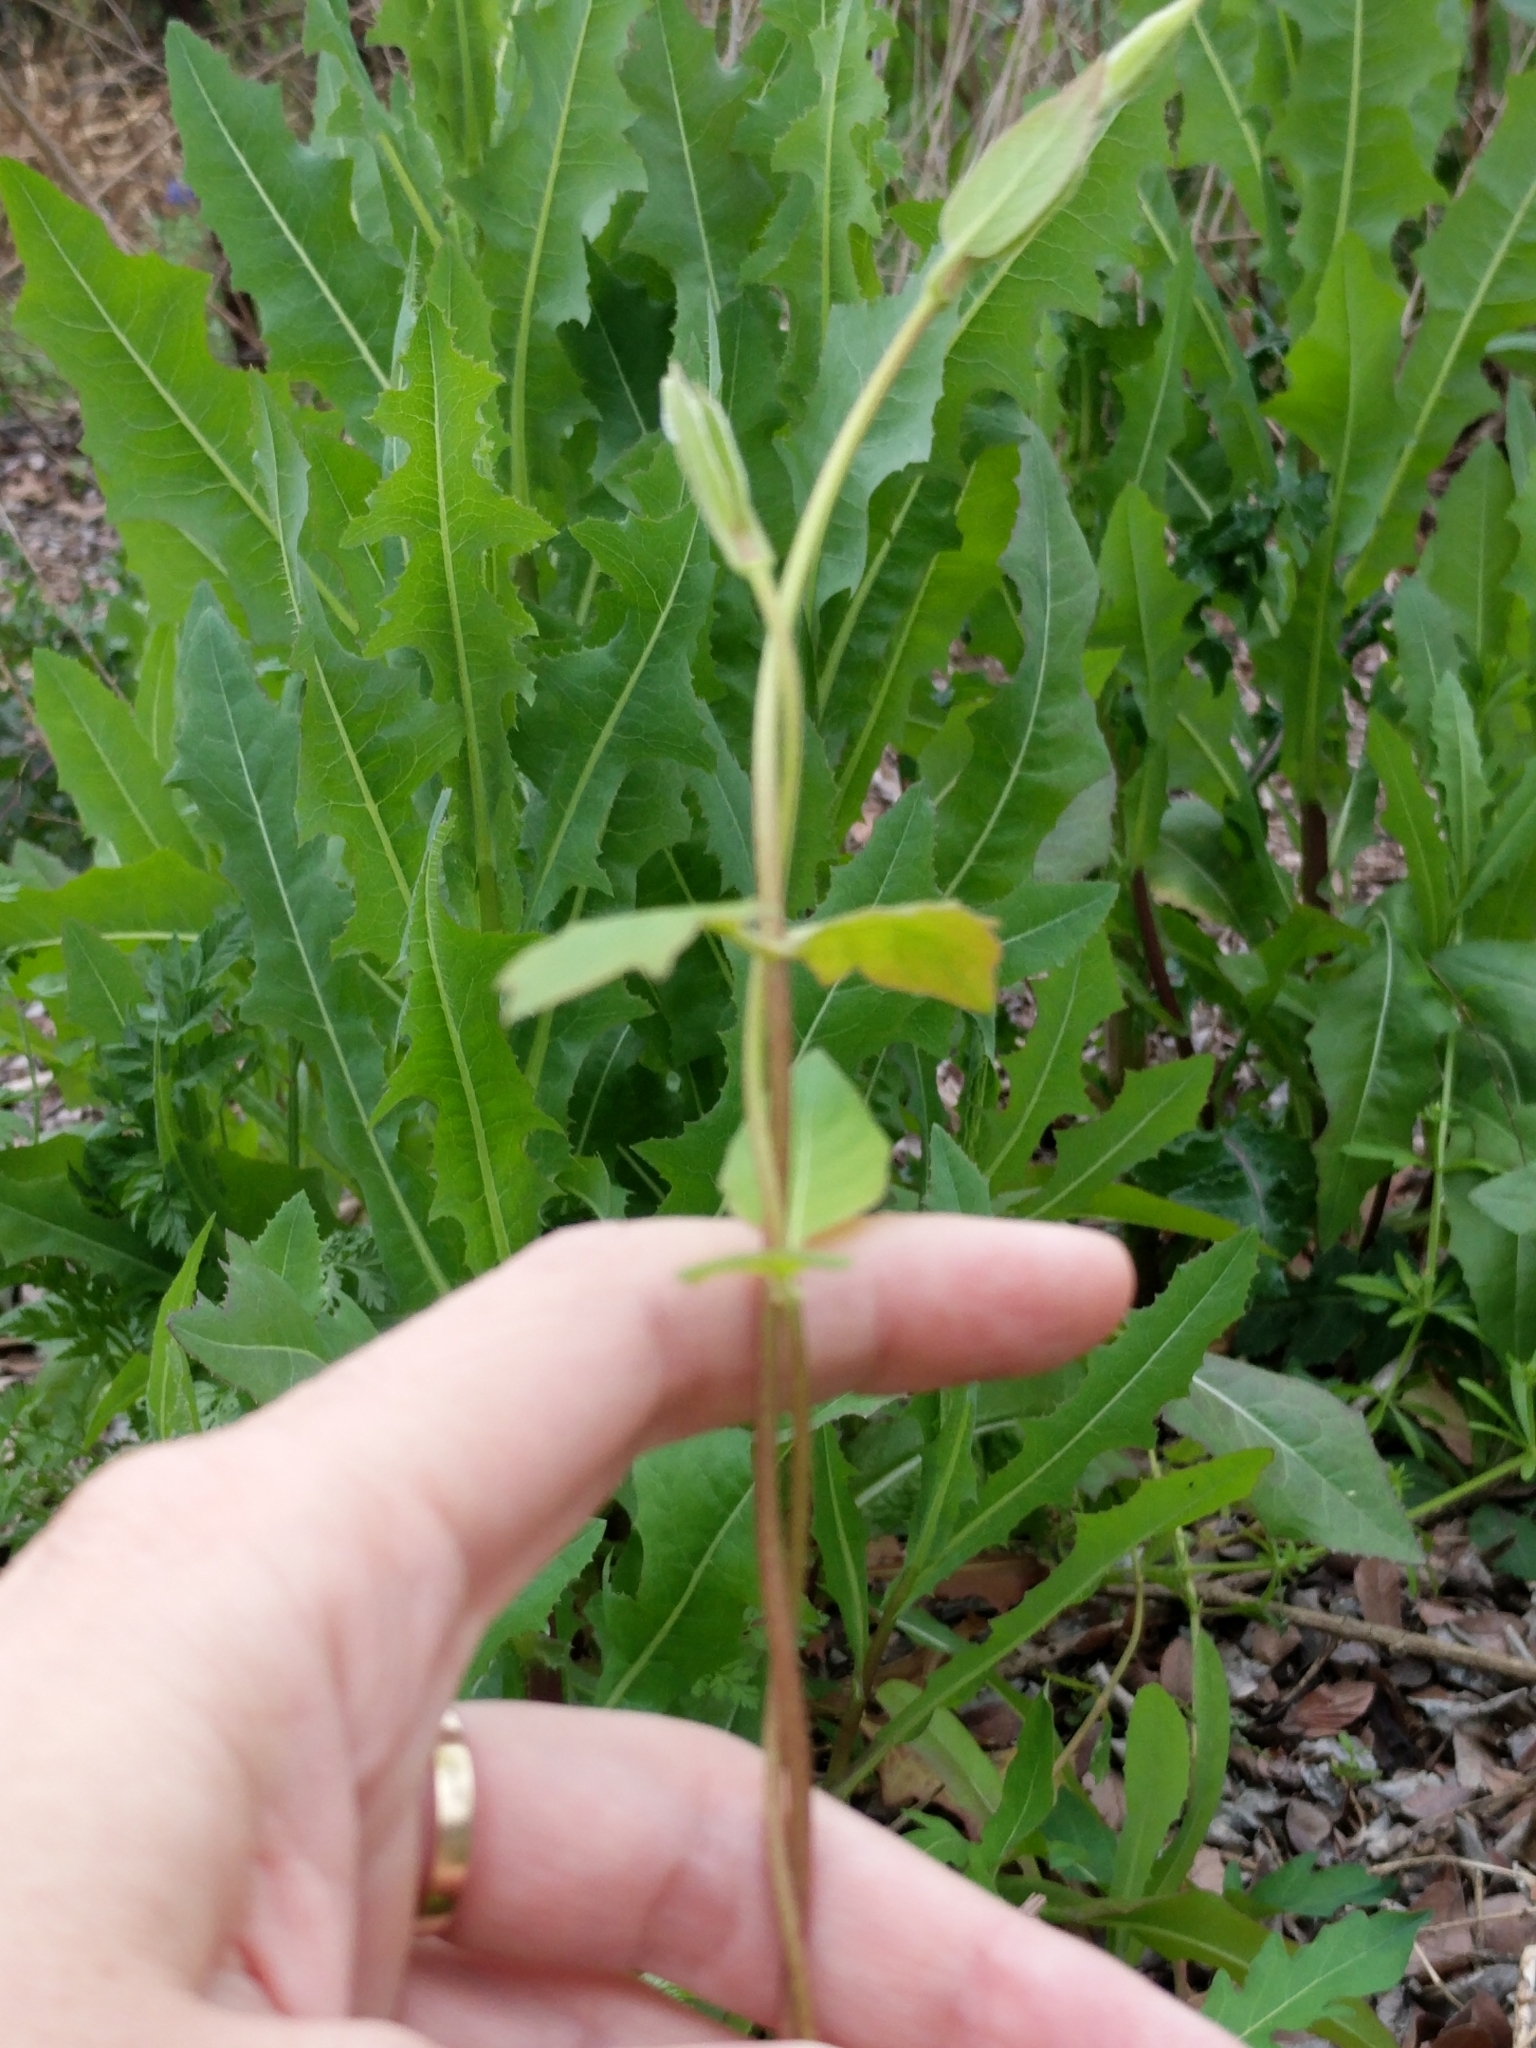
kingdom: Plantae
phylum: Tracheophyta
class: Magnoliopsida
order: Dipsacales
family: Caprifoliaceae
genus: Lonicera
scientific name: Lonicera japonica
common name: Japanese honeysuckle
